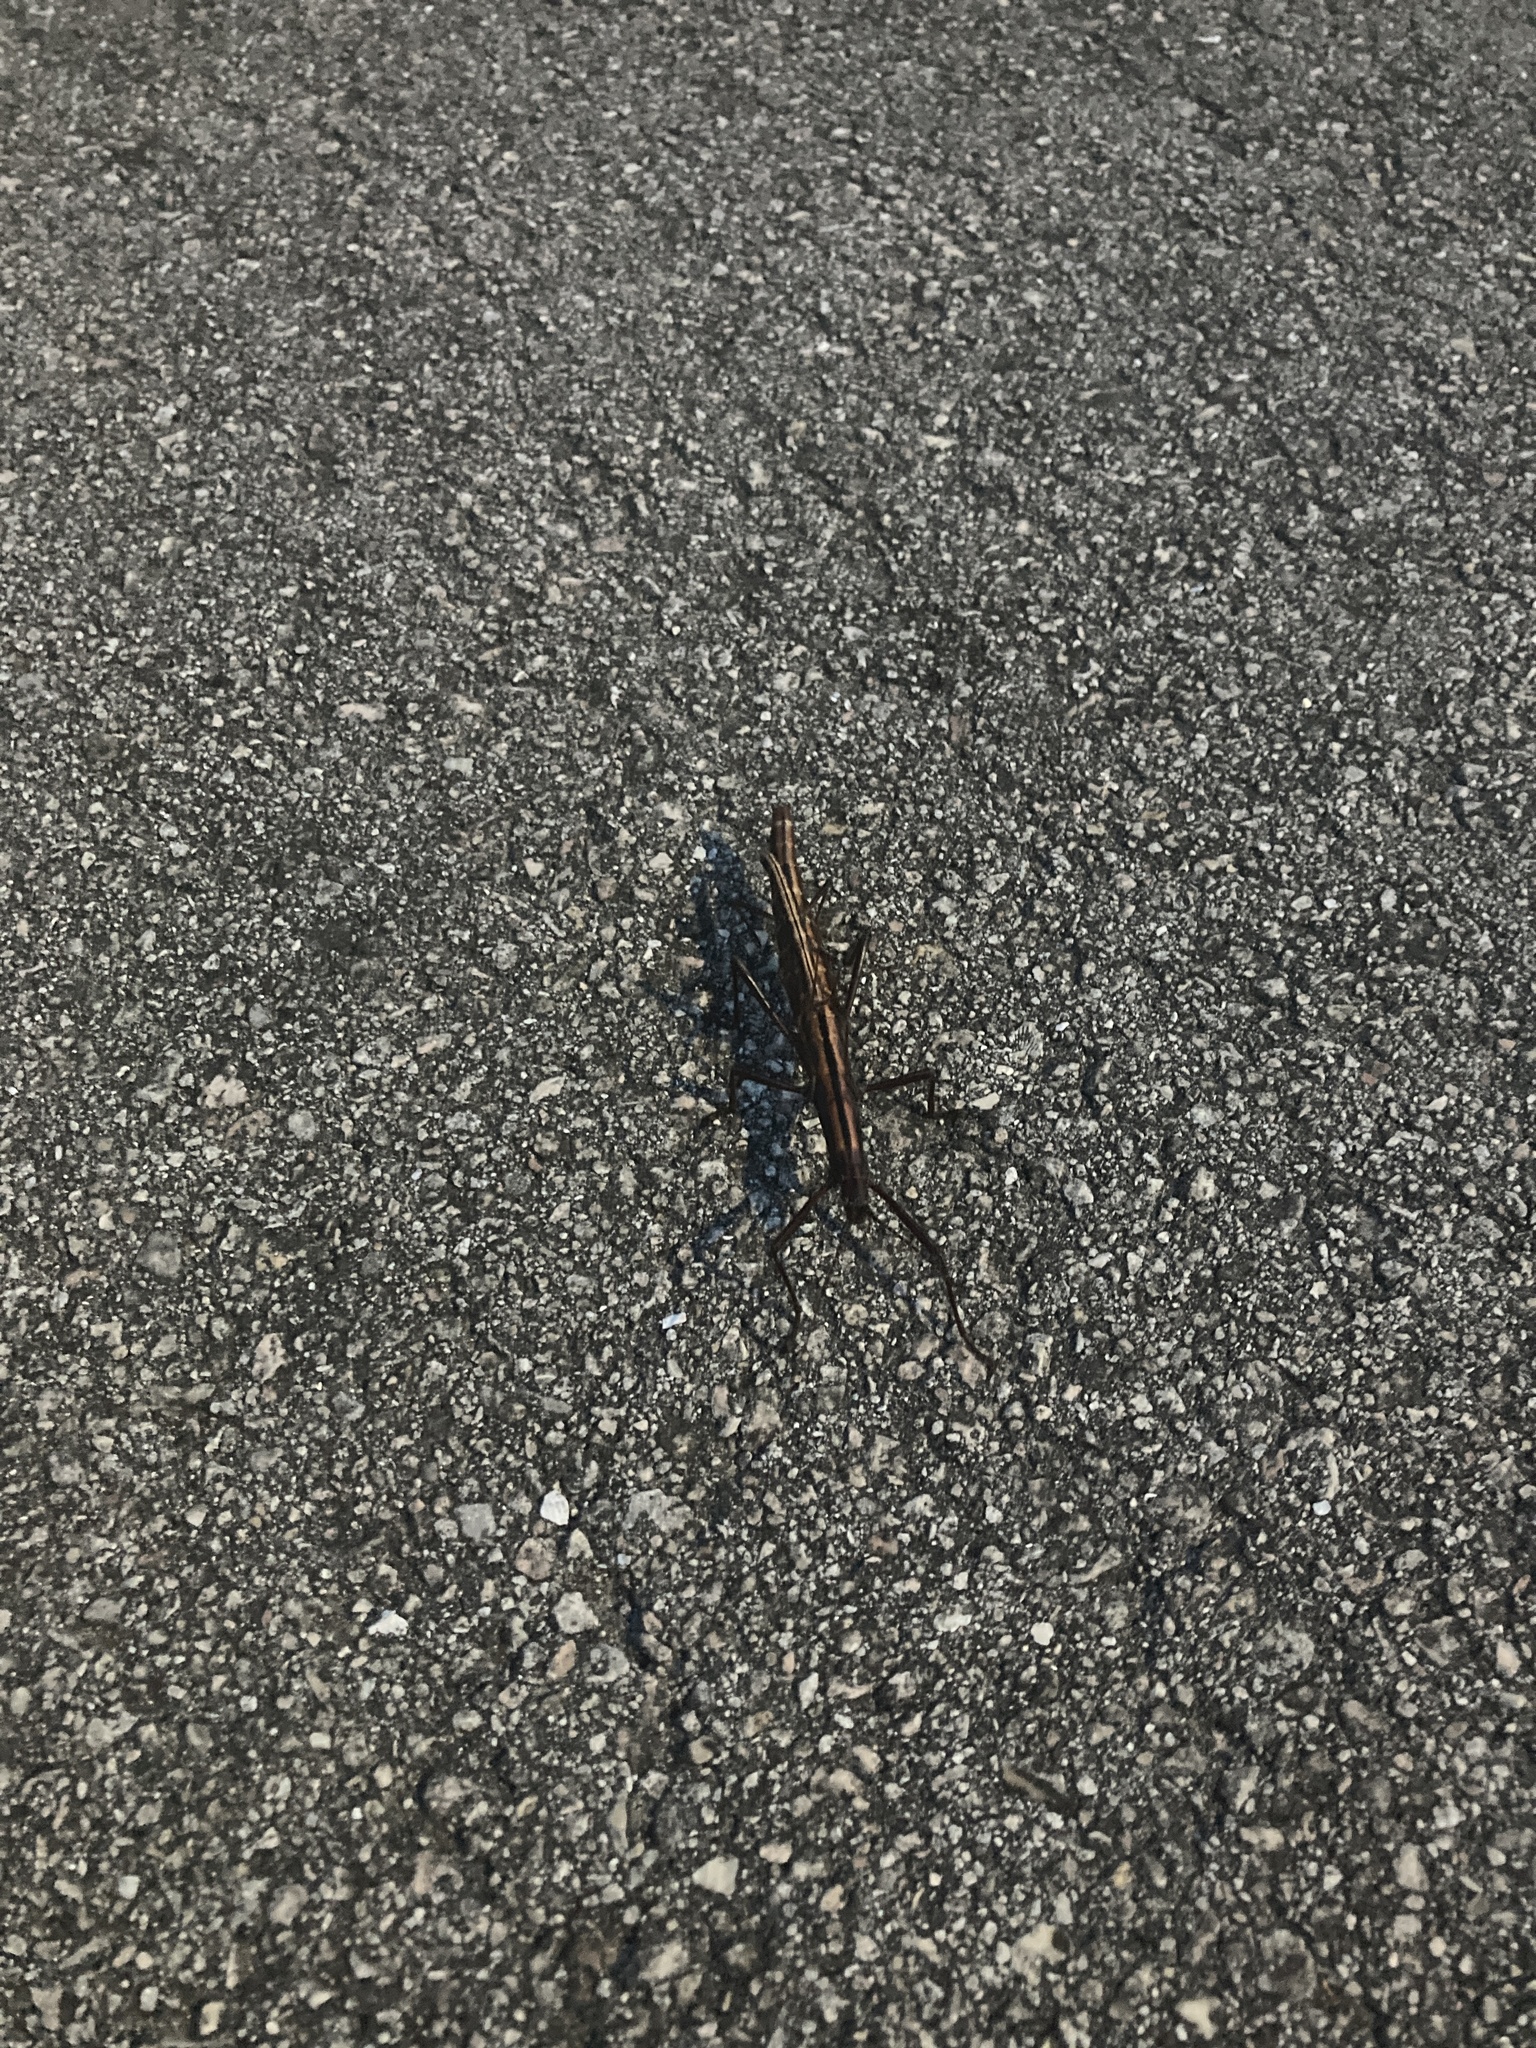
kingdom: Animalia
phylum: Arthropoda
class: Insecta
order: Phasmida
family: Pseudophasmatidae
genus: Anisomorpha
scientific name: Anisomorpha buprestoides
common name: Florida stick insect
